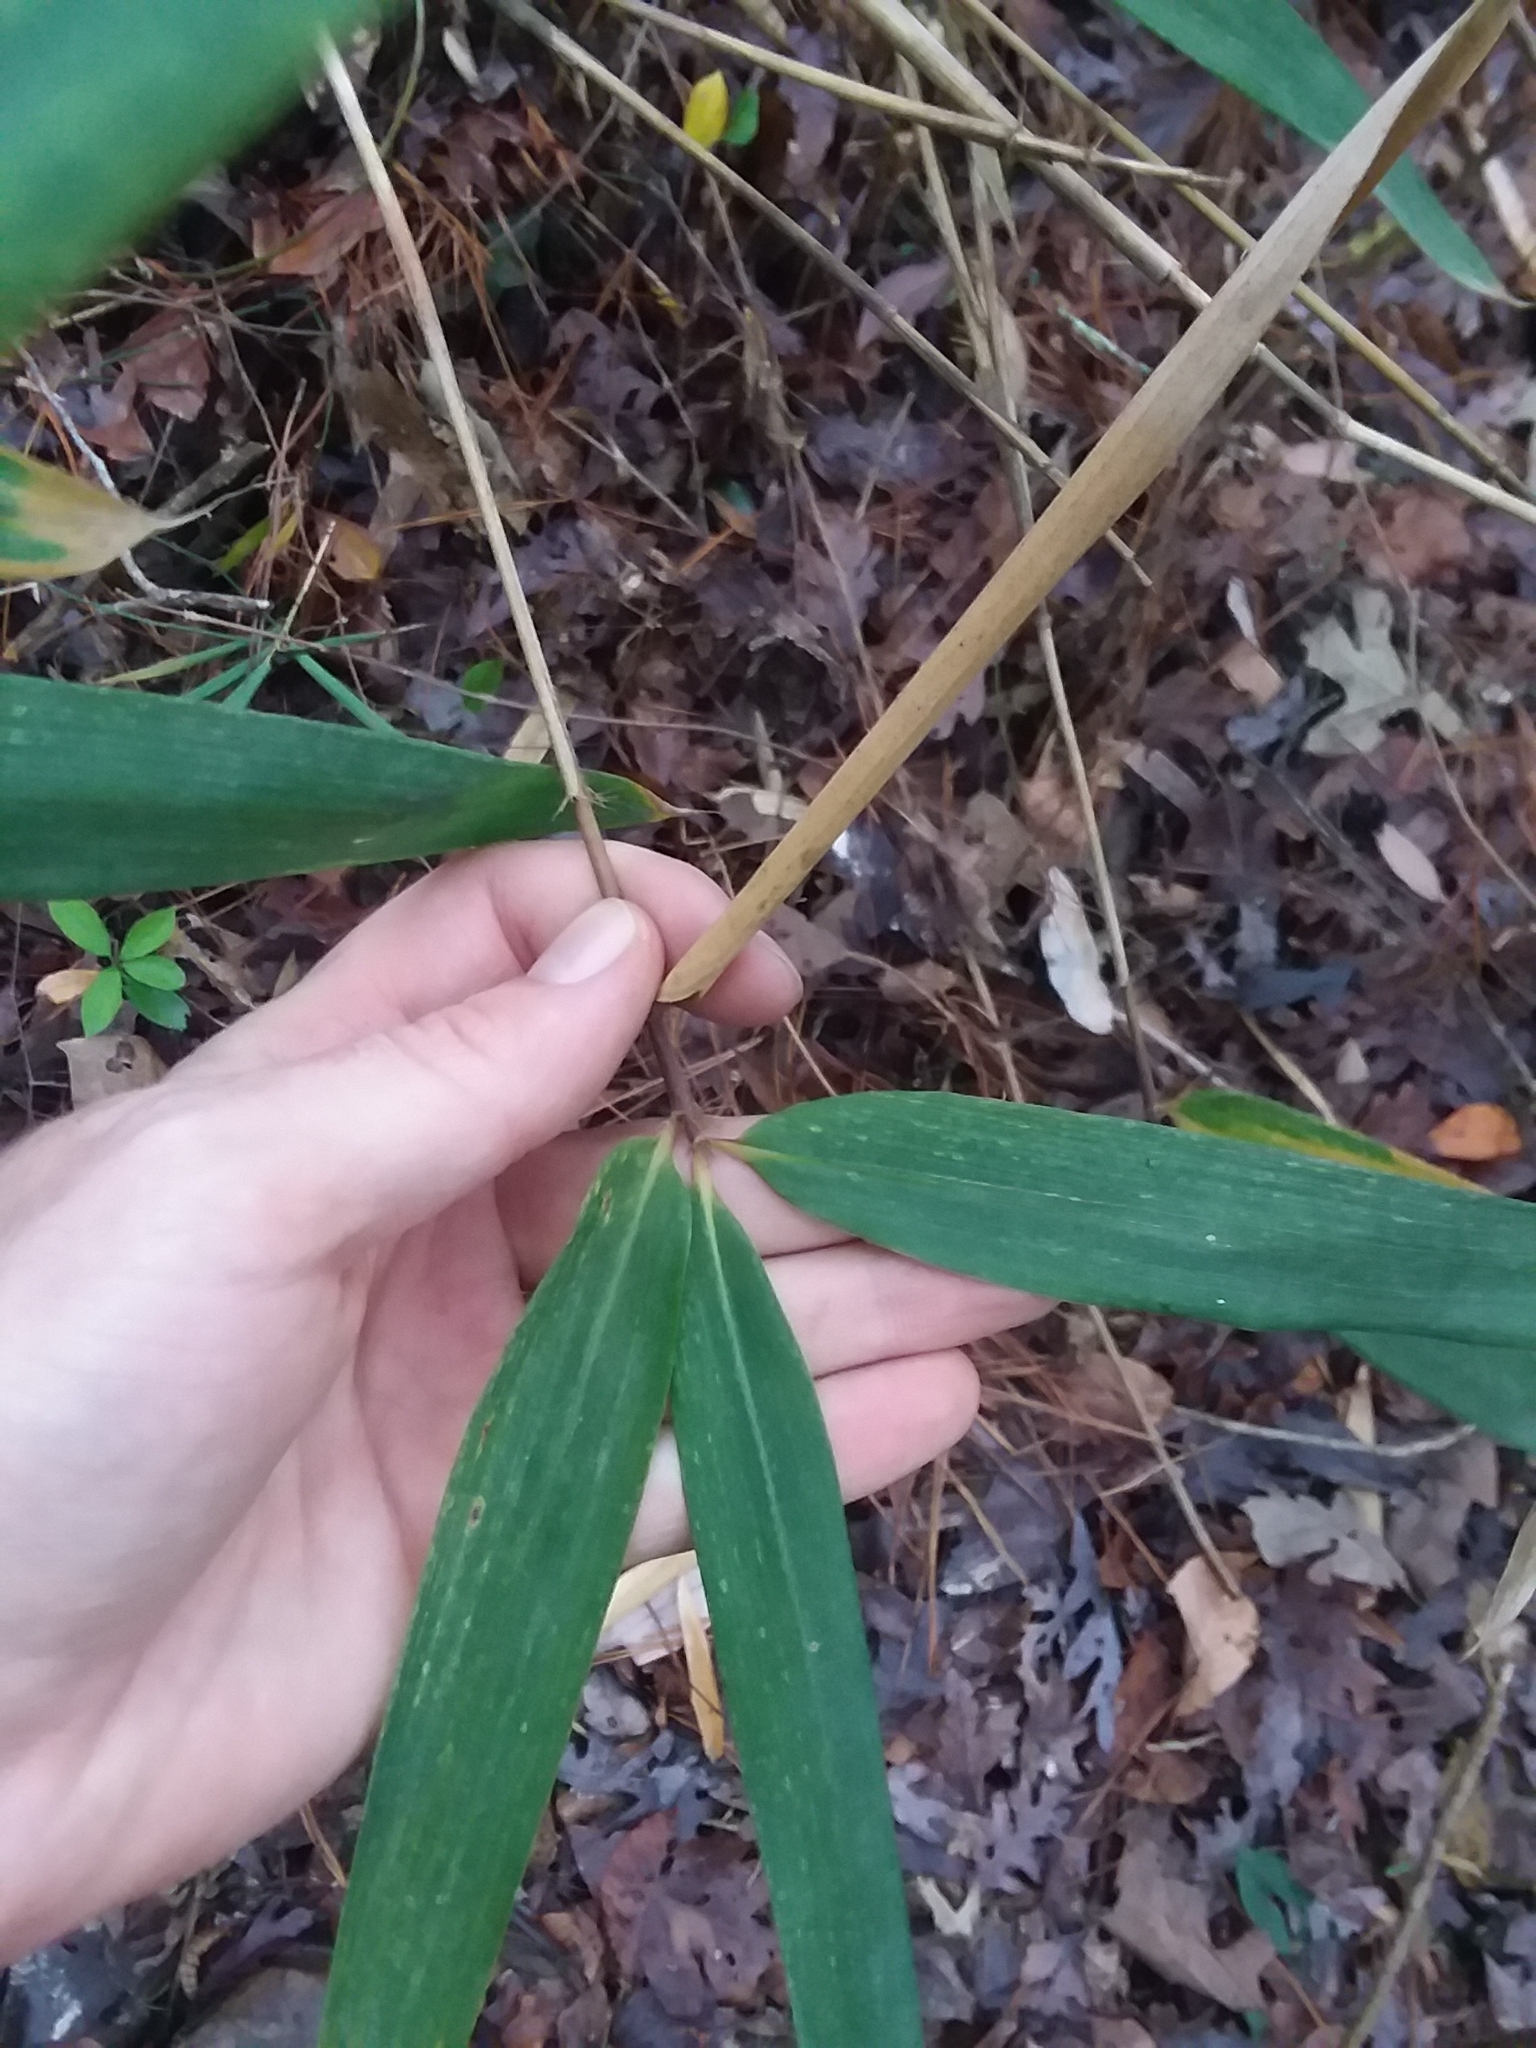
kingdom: Plantae
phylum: Tracheophyta
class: Liliopsida
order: Poales
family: Poaceae
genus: Arundinaria
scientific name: Arundinaria tecta
